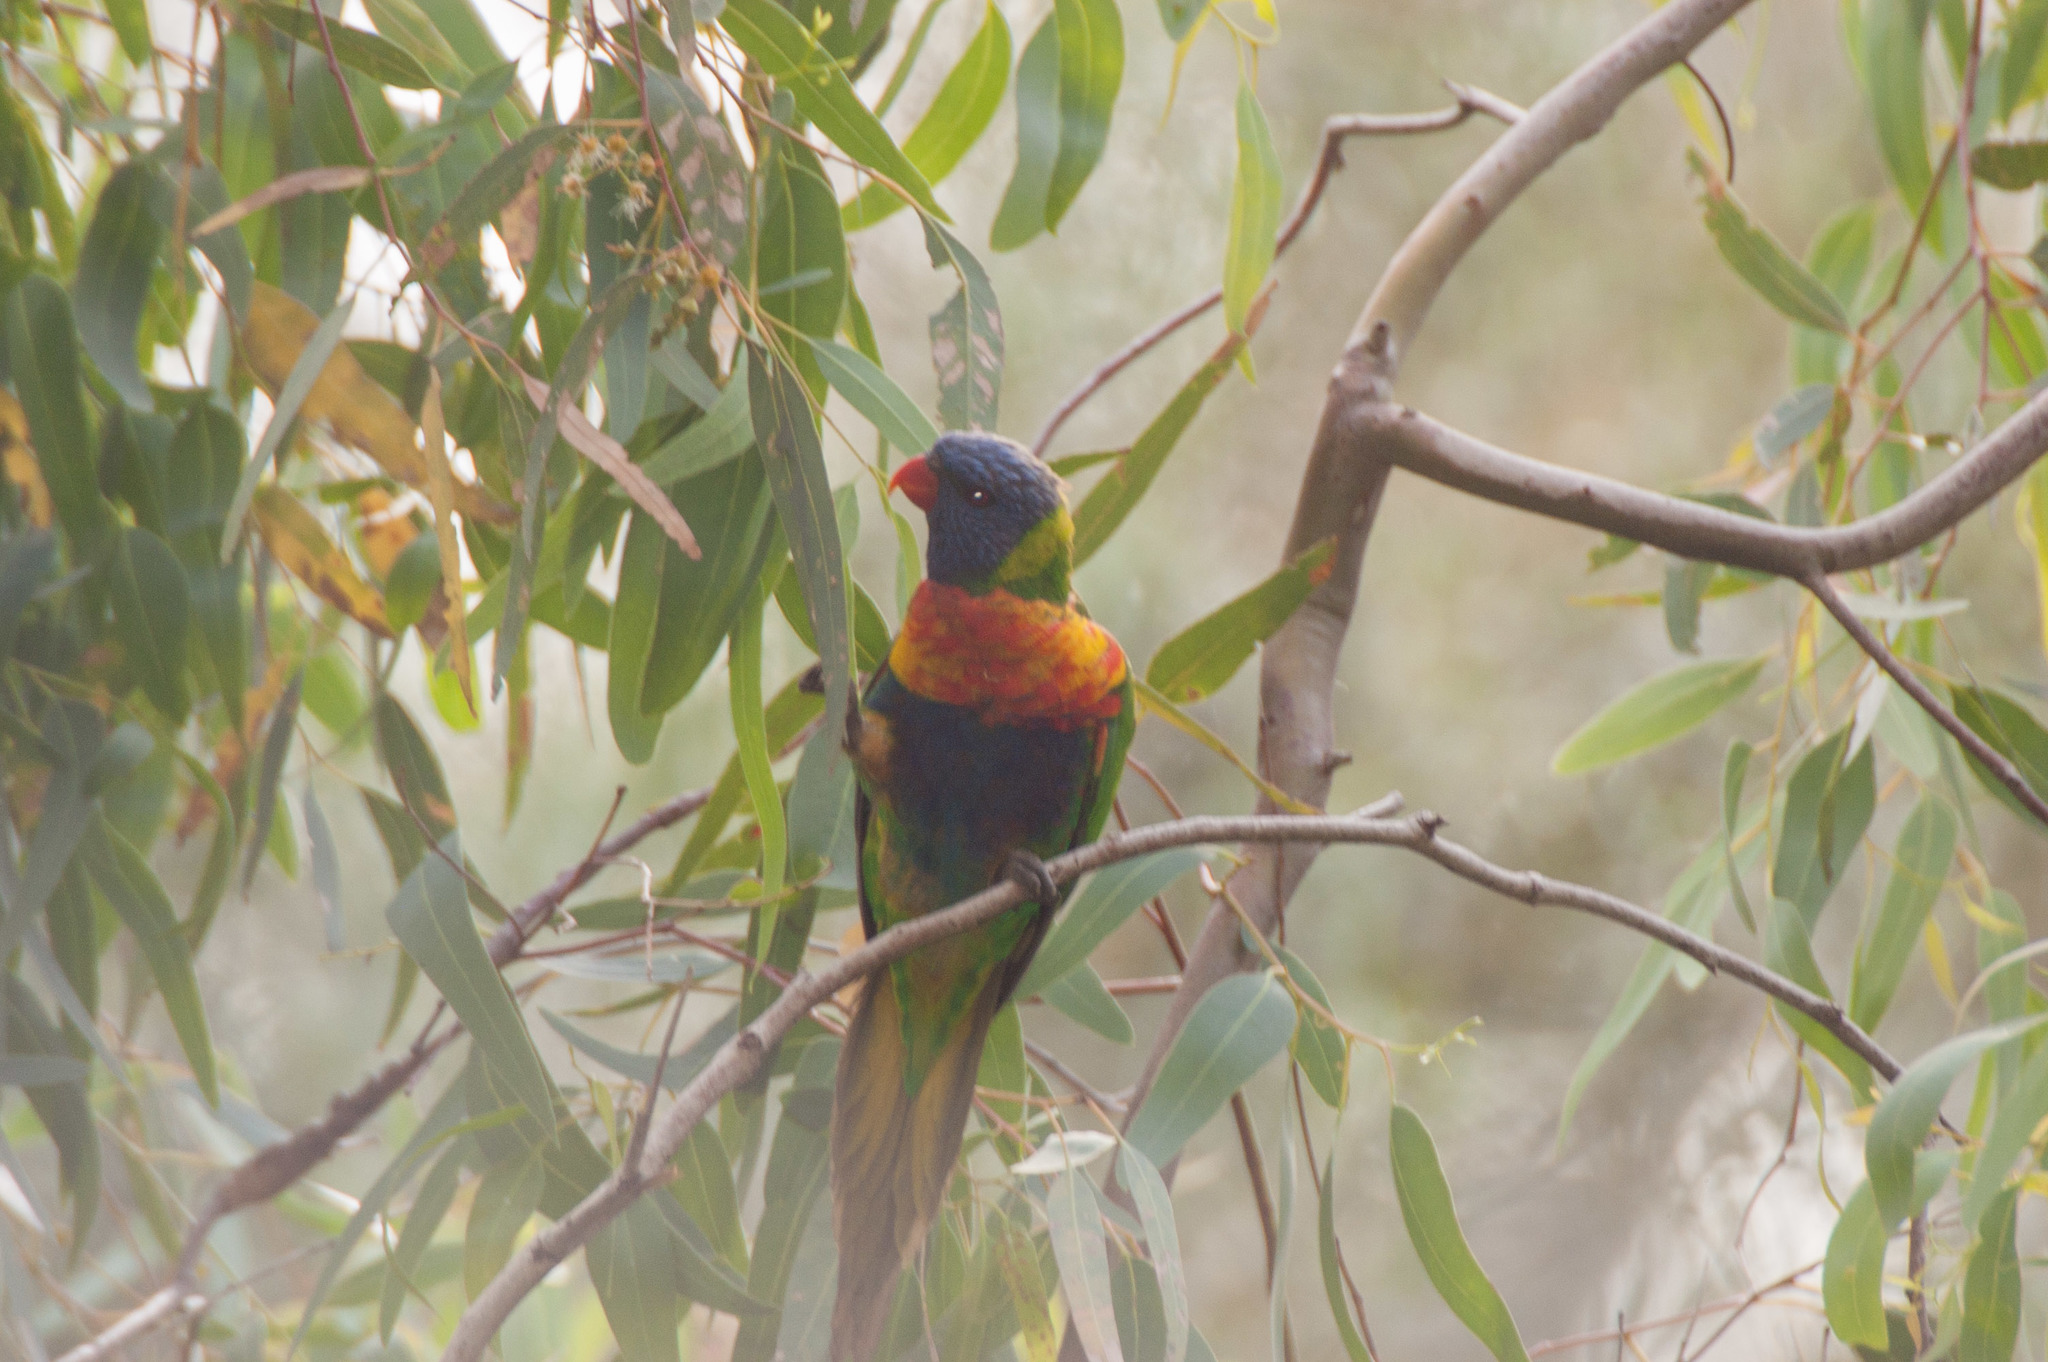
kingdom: Animalia
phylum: Chordata
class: Aves
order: Psittaciformes
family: Psittacidae
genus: Trichoglossus
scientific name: Trichoglossus haematodus
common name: Coconut lorikeet
